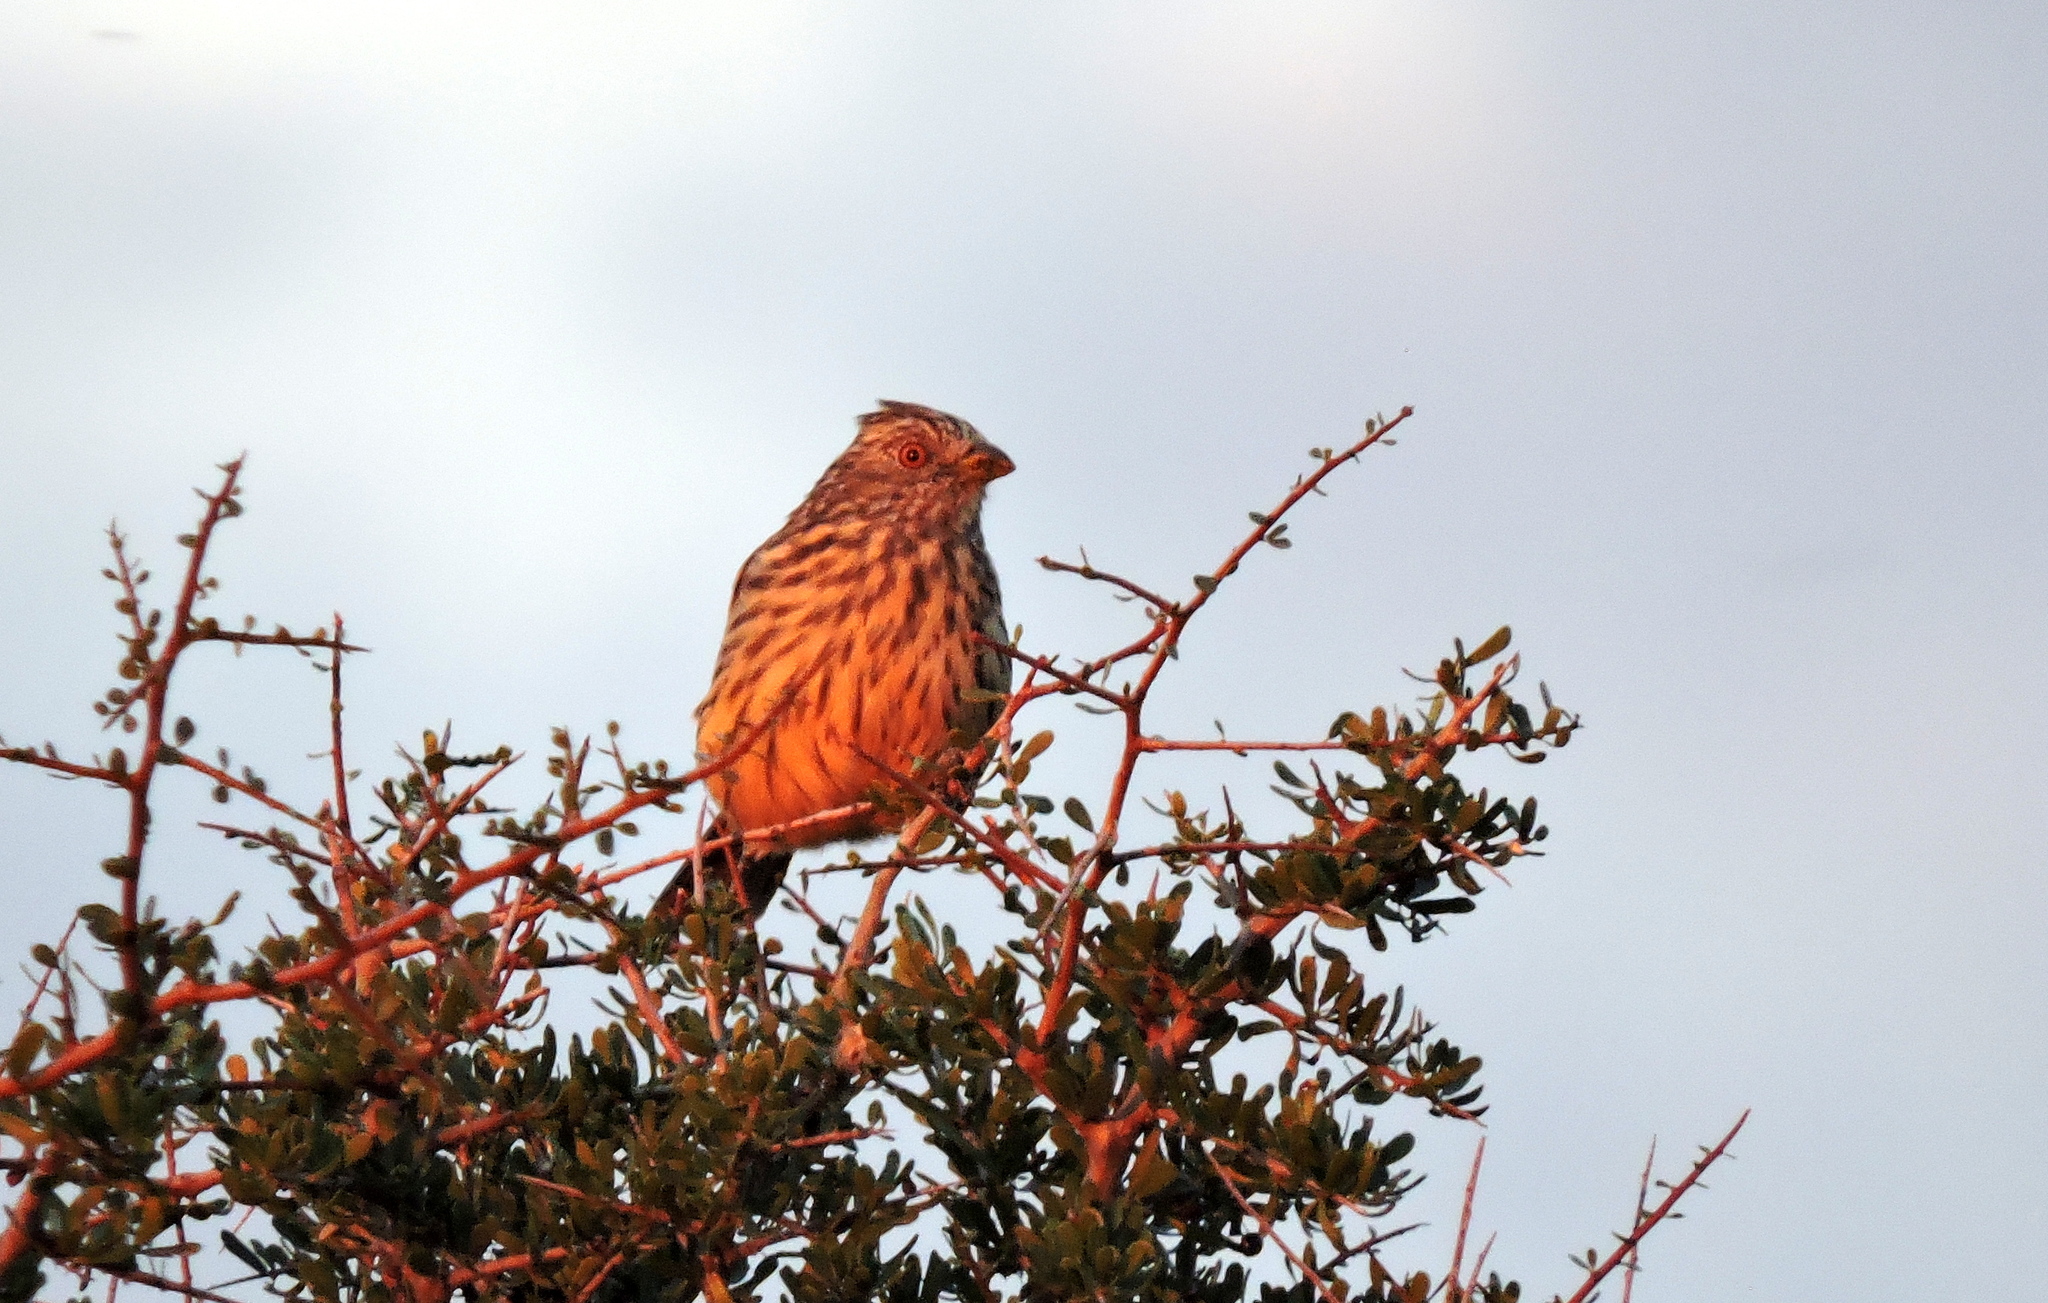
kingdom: Animalia
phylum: Chordata
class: Aves
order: Passeriformes
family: Cotingidae
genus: Phytotoma
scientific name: Phytotoma rutila
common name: White-tipped plantcutter
